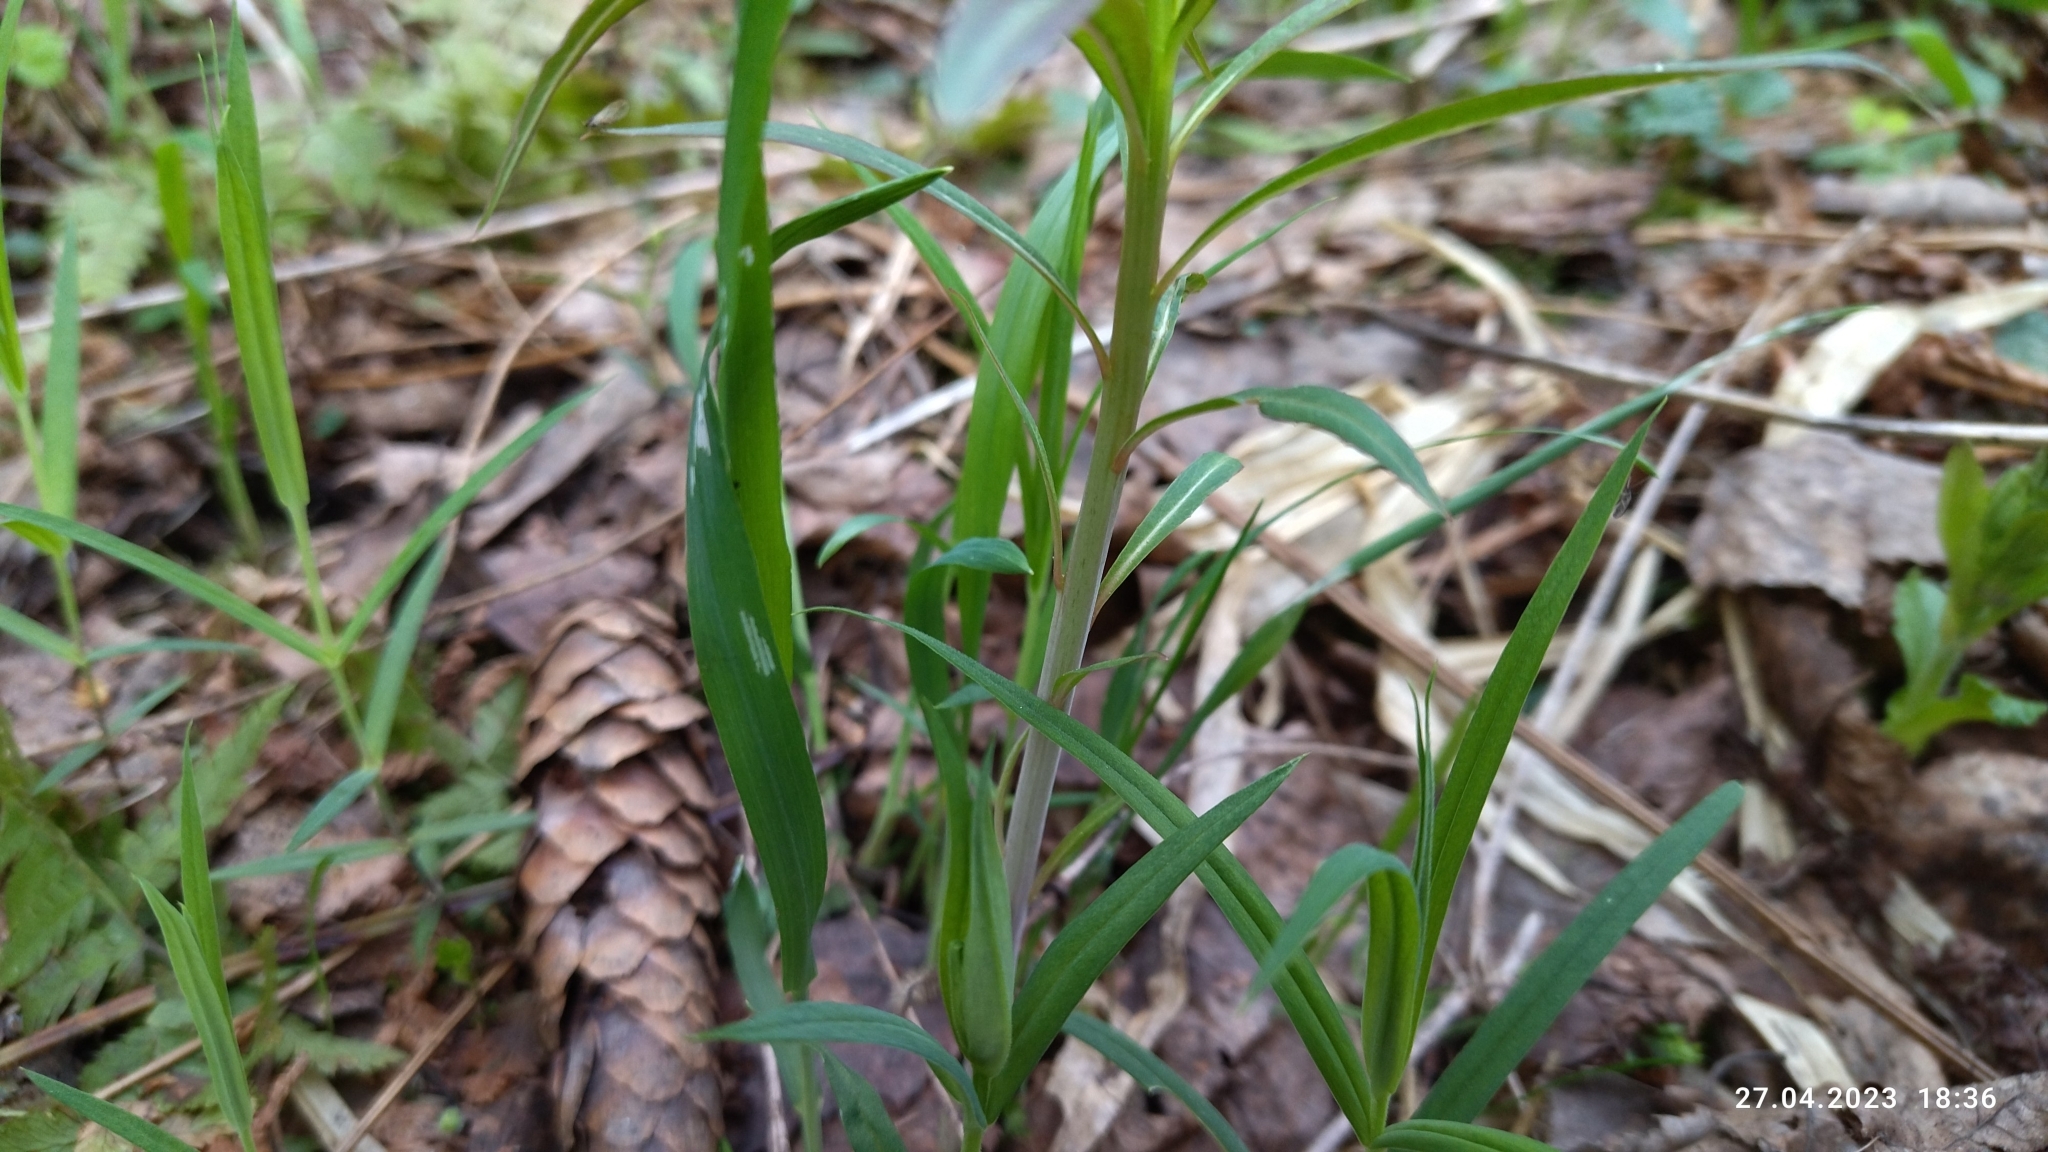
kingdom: Plantae
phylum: Tracheophyta
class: Magnoliopsida
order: Myrtales
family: Onagraceae
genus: Chamaenerion
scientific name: Chamaenerion angustifolium
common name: Fireweed
